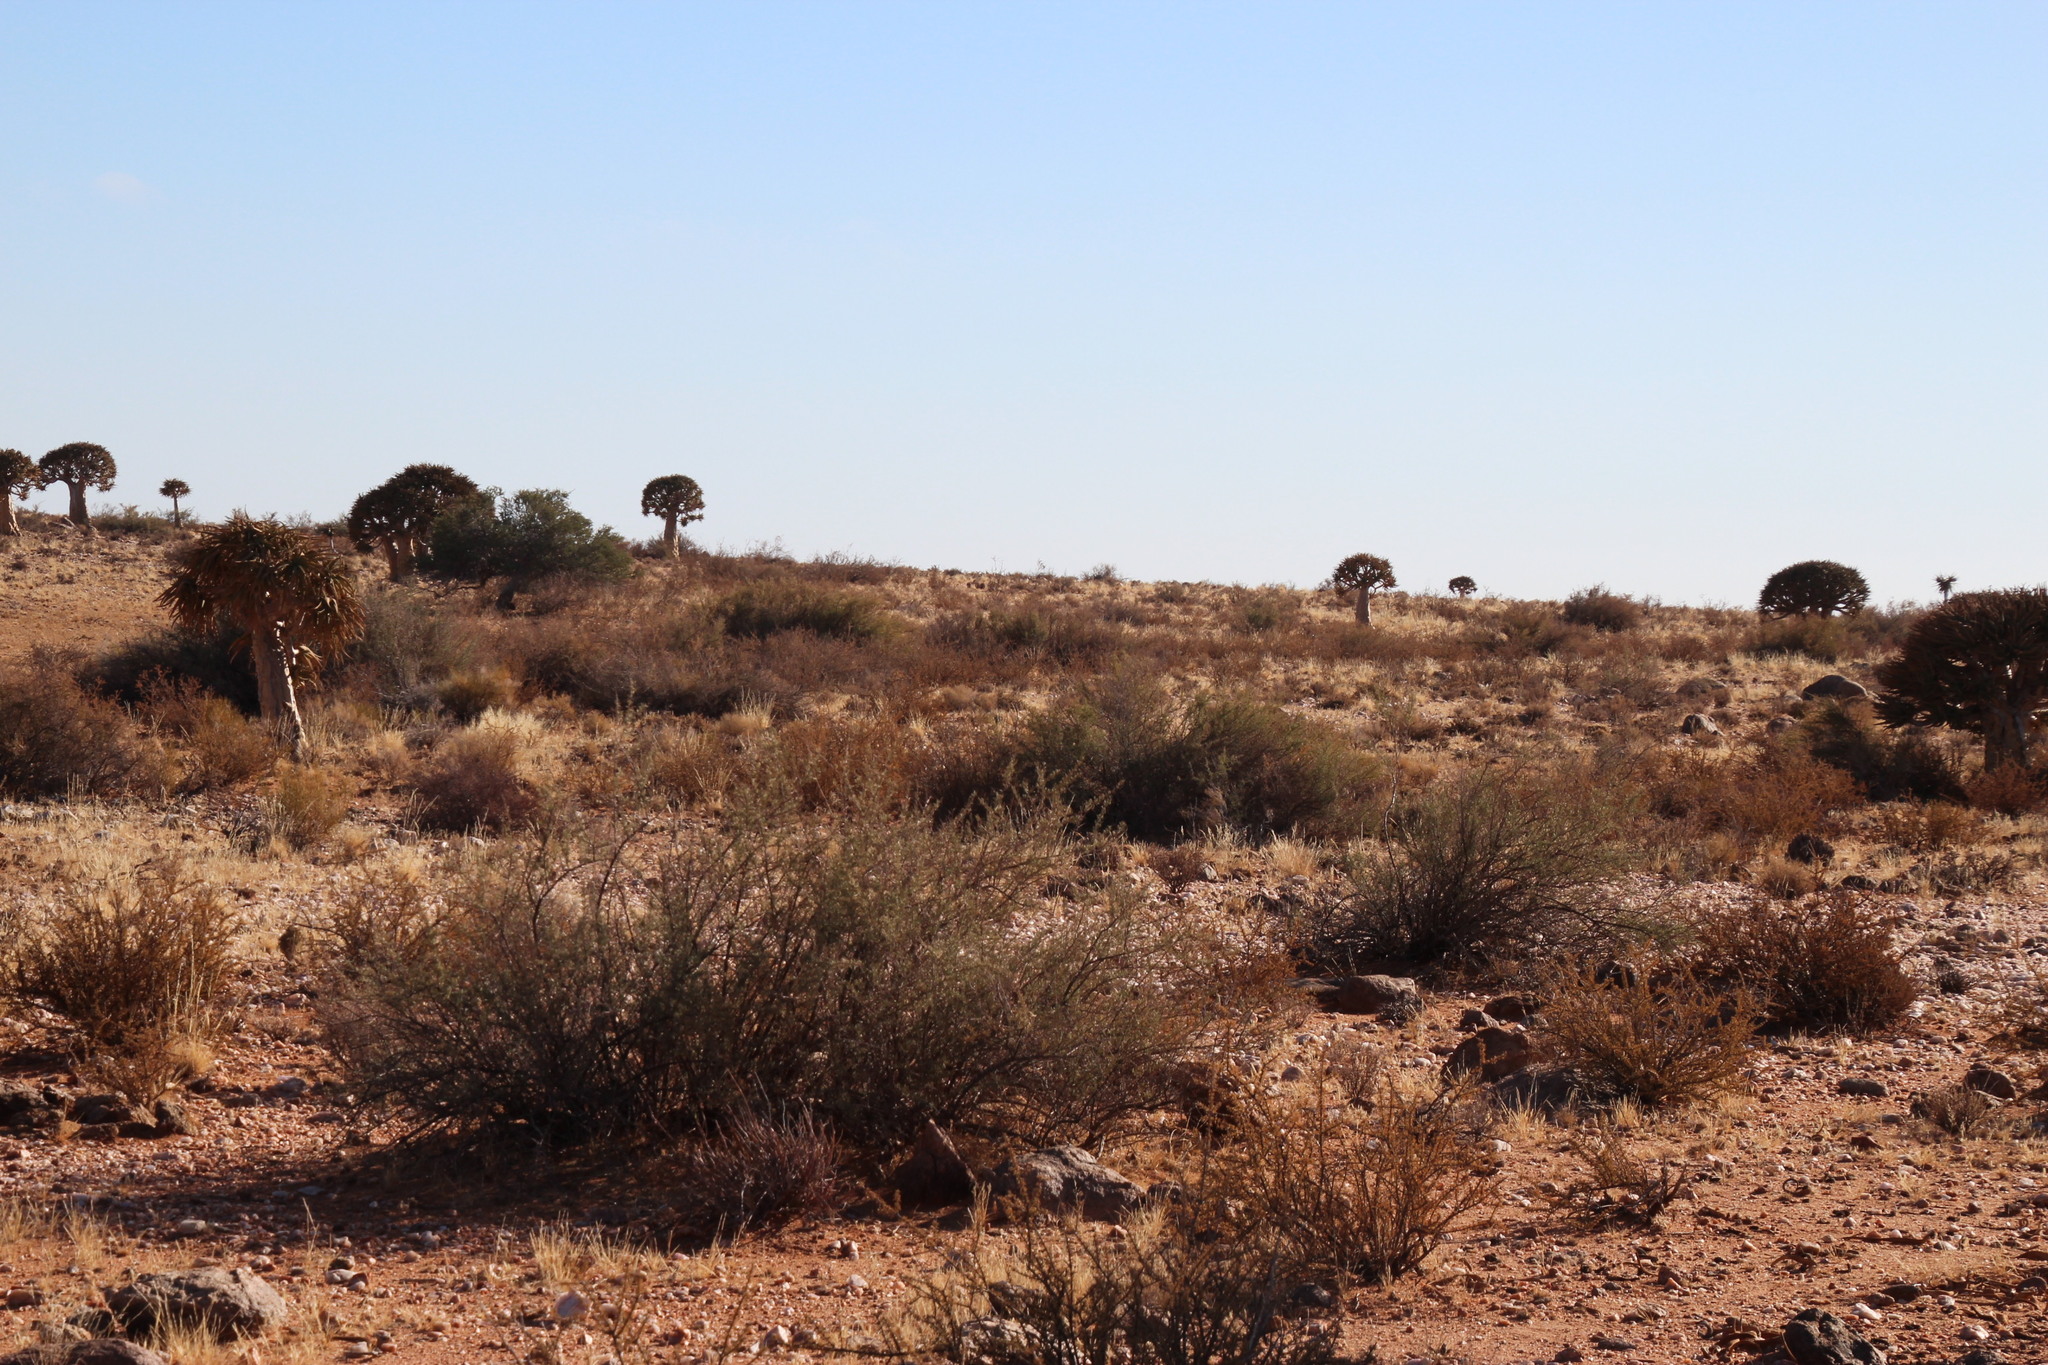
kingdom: Plantae
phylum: Tracheophyta
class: Liliopsida
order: Asparagales
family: Asphodelaceae
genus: Aloidendron
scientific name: Aloidendron dichotomum
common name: Quiver tree
